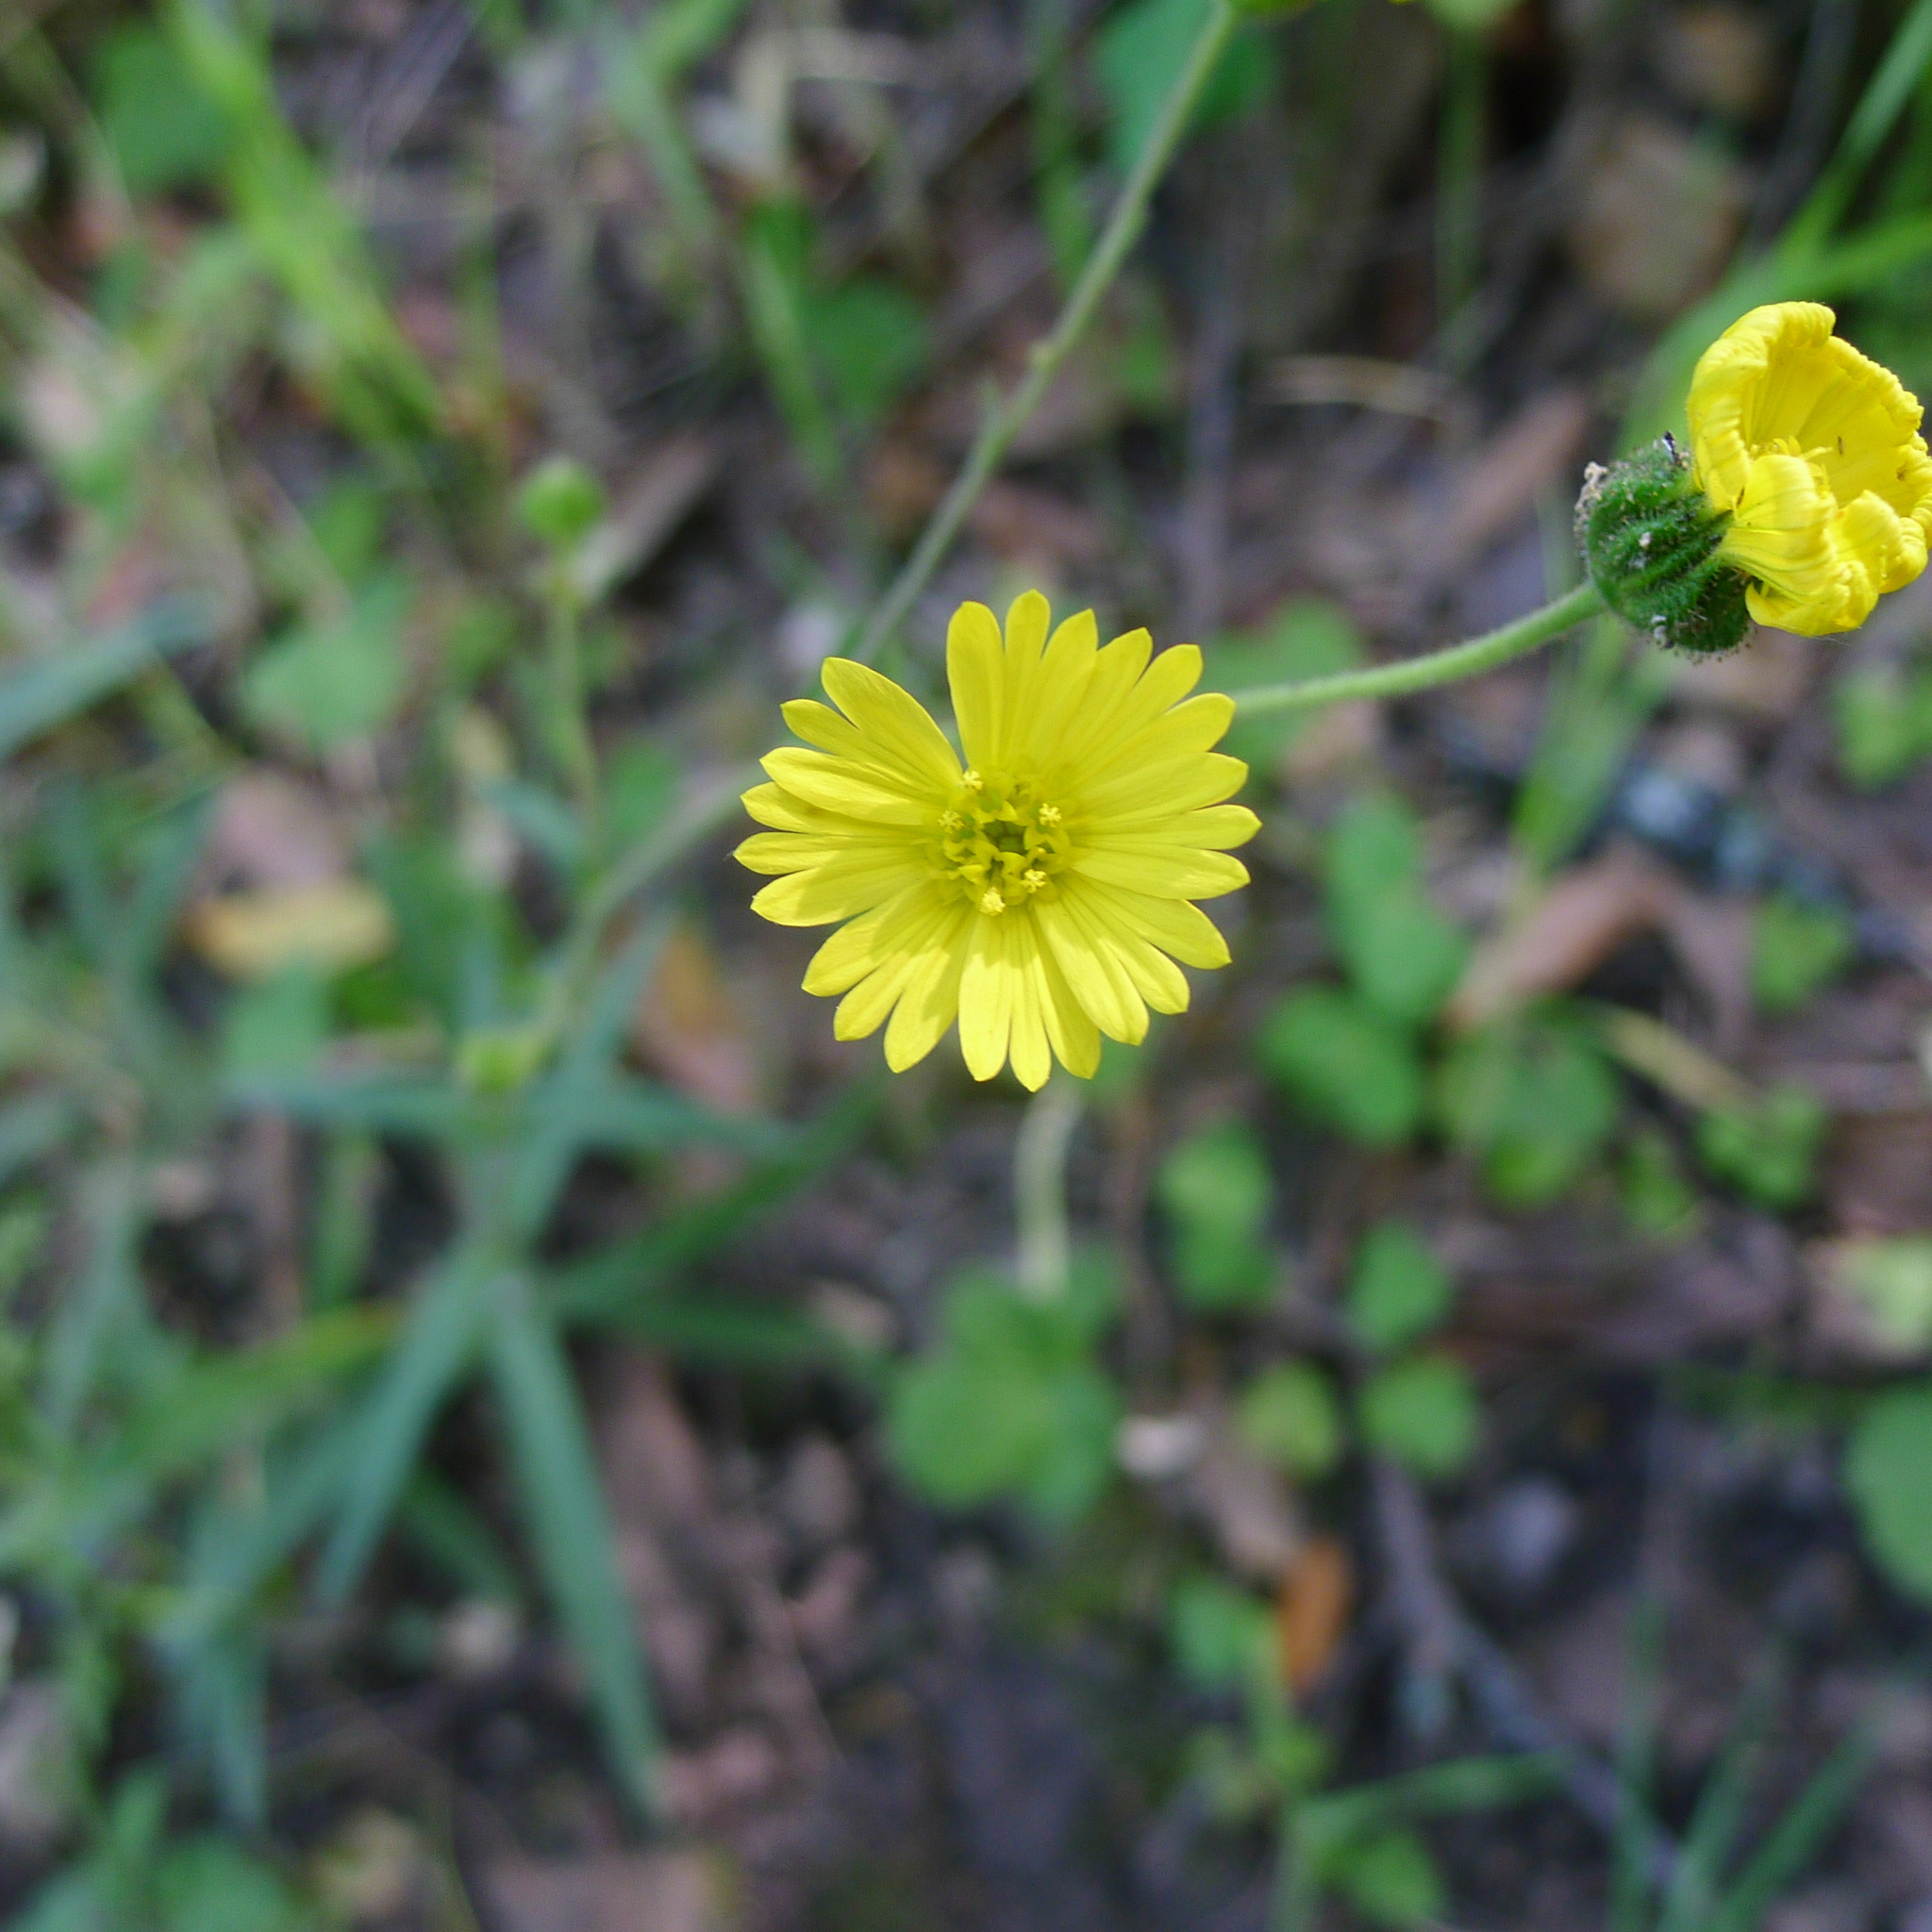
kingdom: Plantae
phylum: Tracheophyta
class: Magnoliopsida
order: Asterales
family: Asteraceae
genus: Anisocarpus
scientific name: Anisocarpus madioides
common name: Woodland madia
